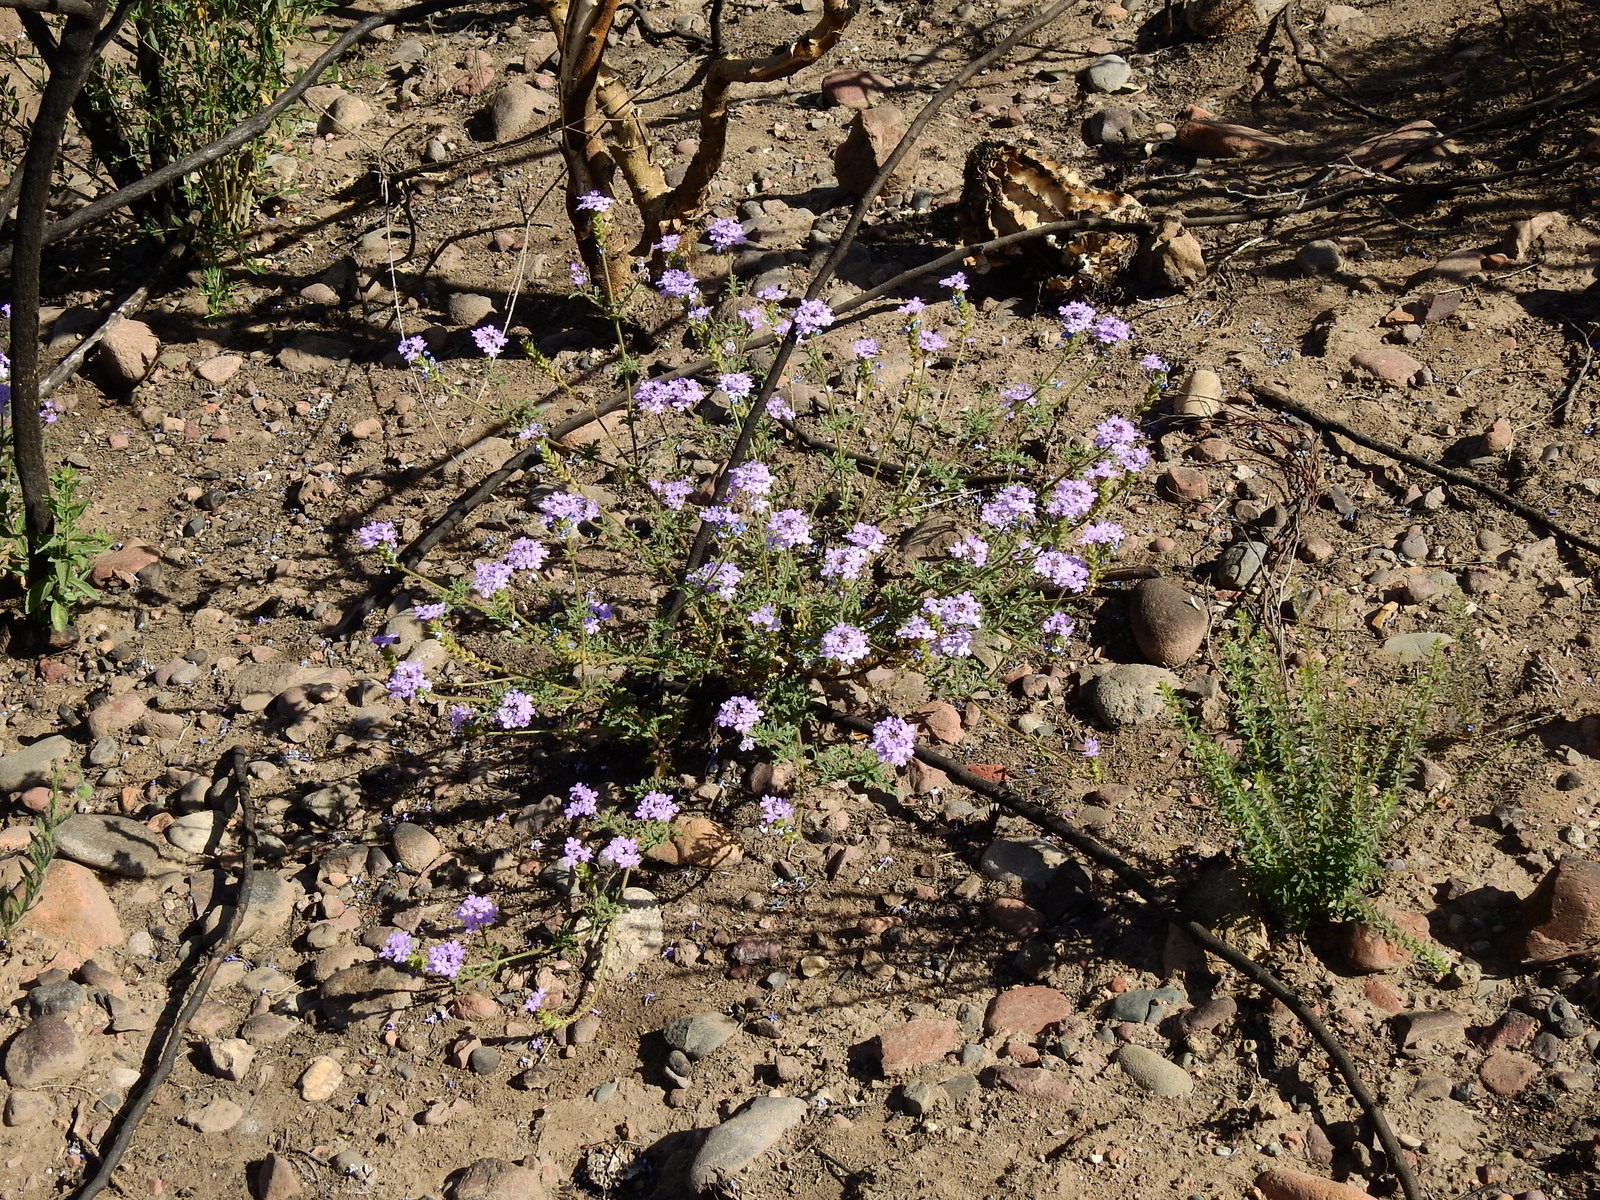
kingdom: Plantae
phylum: Tracheophyta
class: Magnoliopsida
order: Lamiales
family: Verbenaceae
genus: Verbena
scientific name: Verbena venturii
